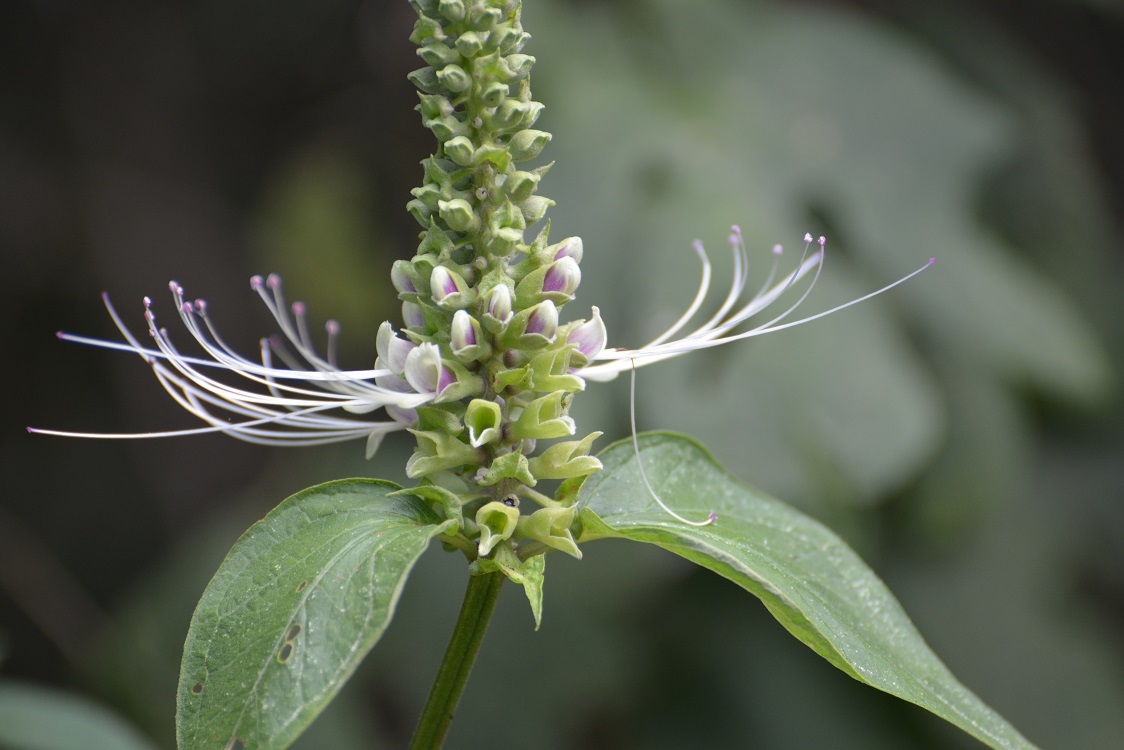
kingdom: Plantae
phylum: Tracheophyta
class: Magnoliopsida
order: Lamiales
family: Lamiaceae
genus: Catoferia
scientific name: Catoferia chiapensis
